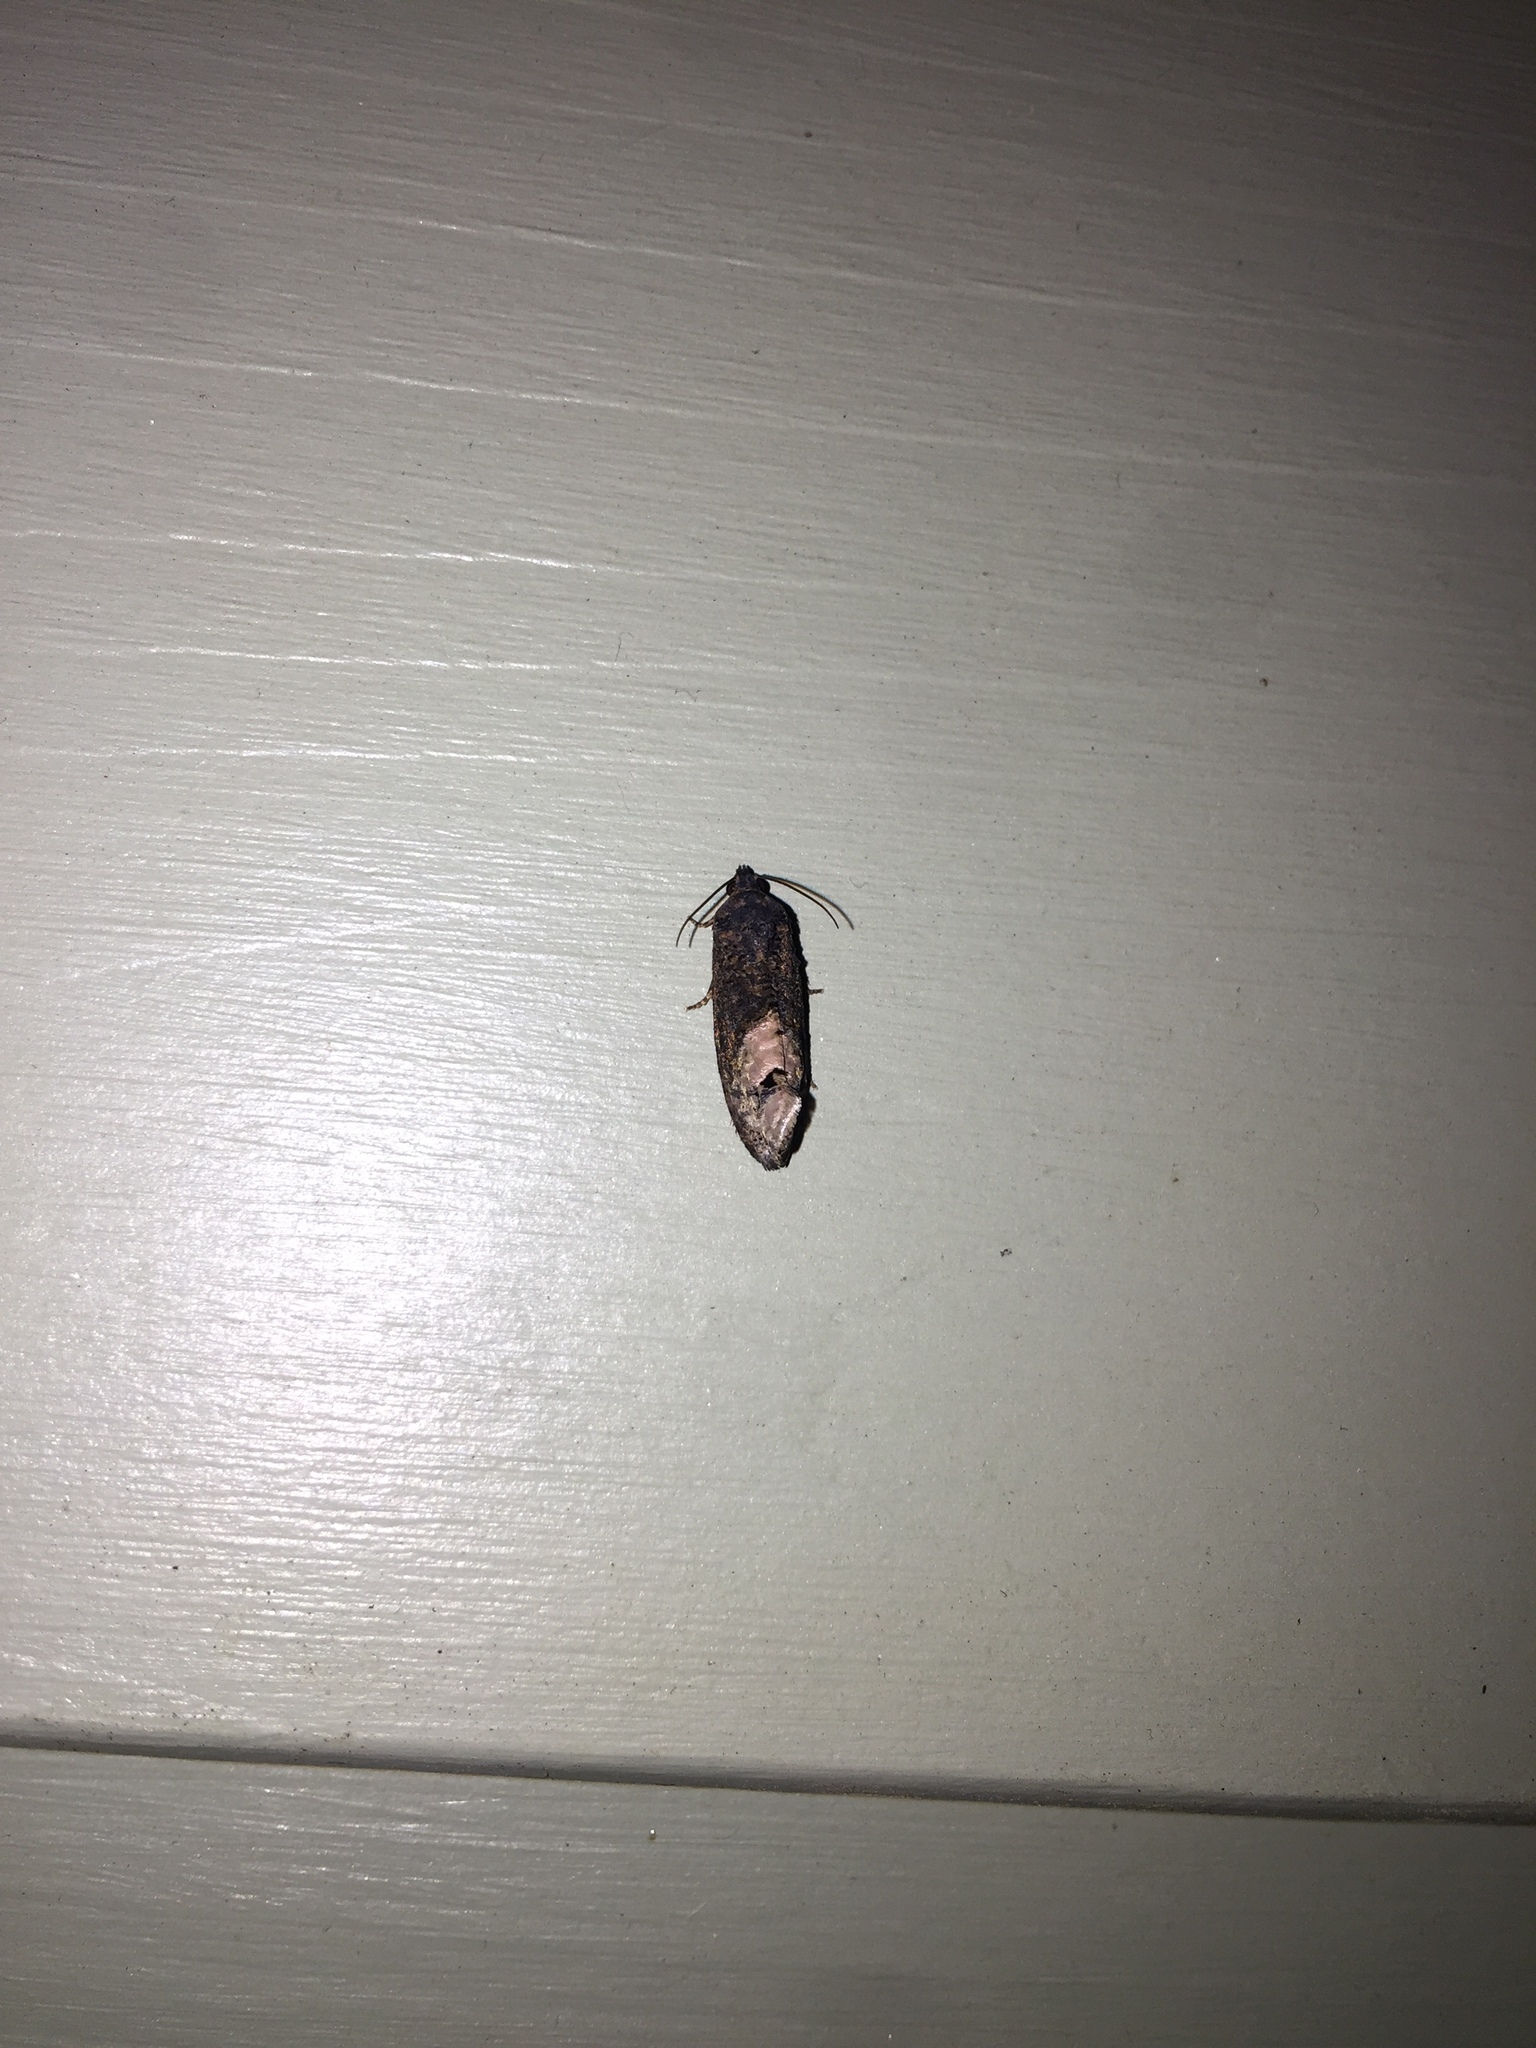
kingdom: Animalia
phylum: Arthropoda
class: Insecta
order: Lepidoptera
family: Tortricidae
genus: Ecdytolopha
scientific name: Ecdytolopha insiticiana
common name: Locust twig borer moth
